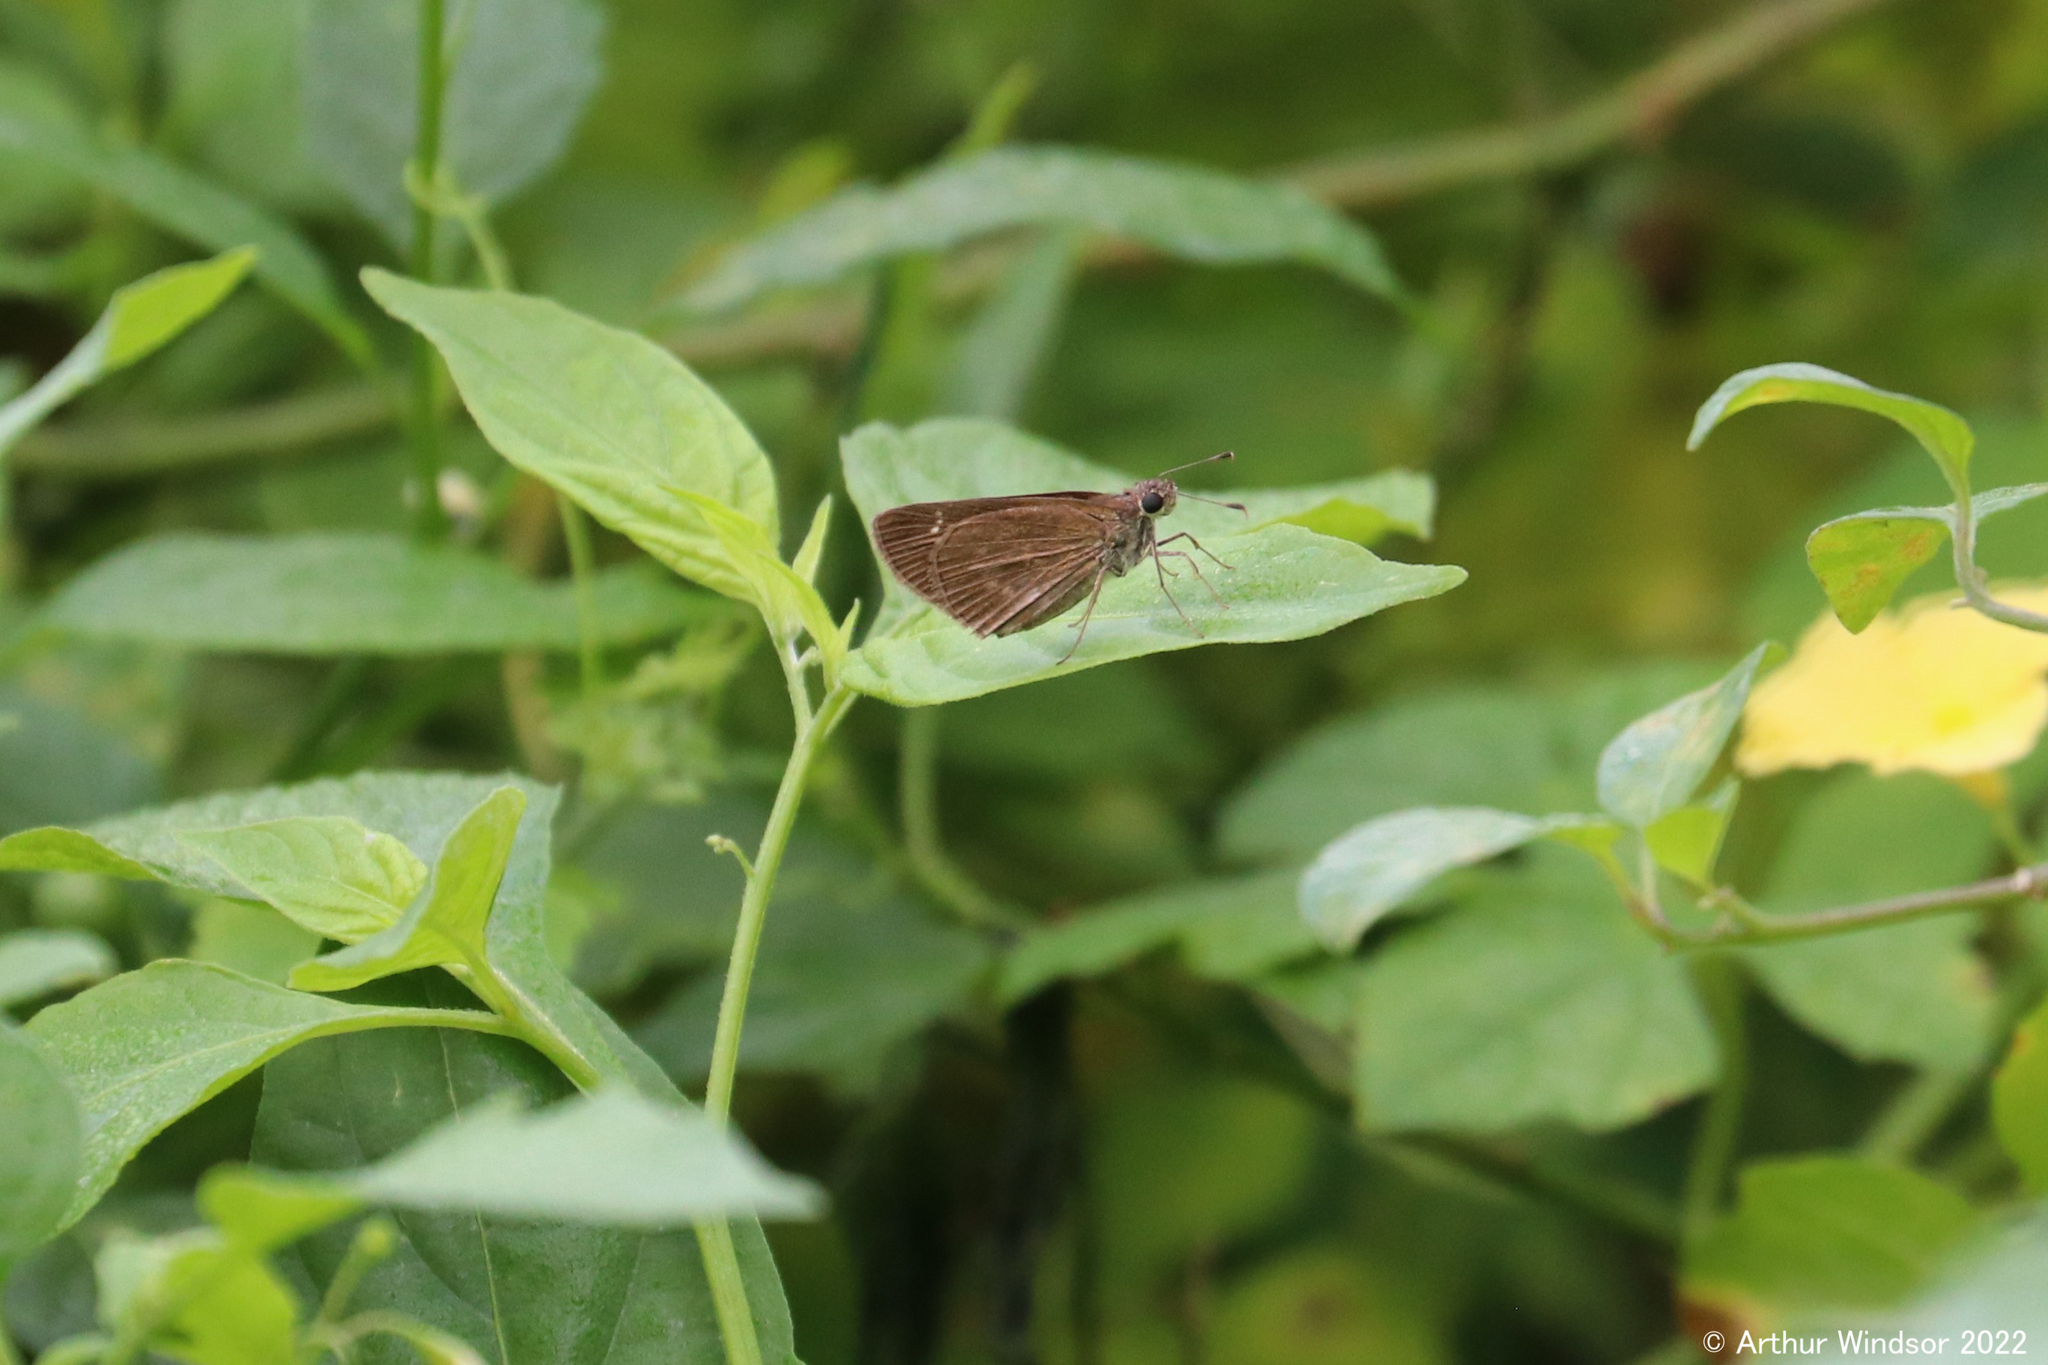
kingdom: Animalia
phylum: Arthropoda
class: Insecta
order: Lepidoptera
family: Hesperiidae
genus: Cymaenes
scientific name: Cymaenes tripunctus
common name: Dingy dotted skipper
